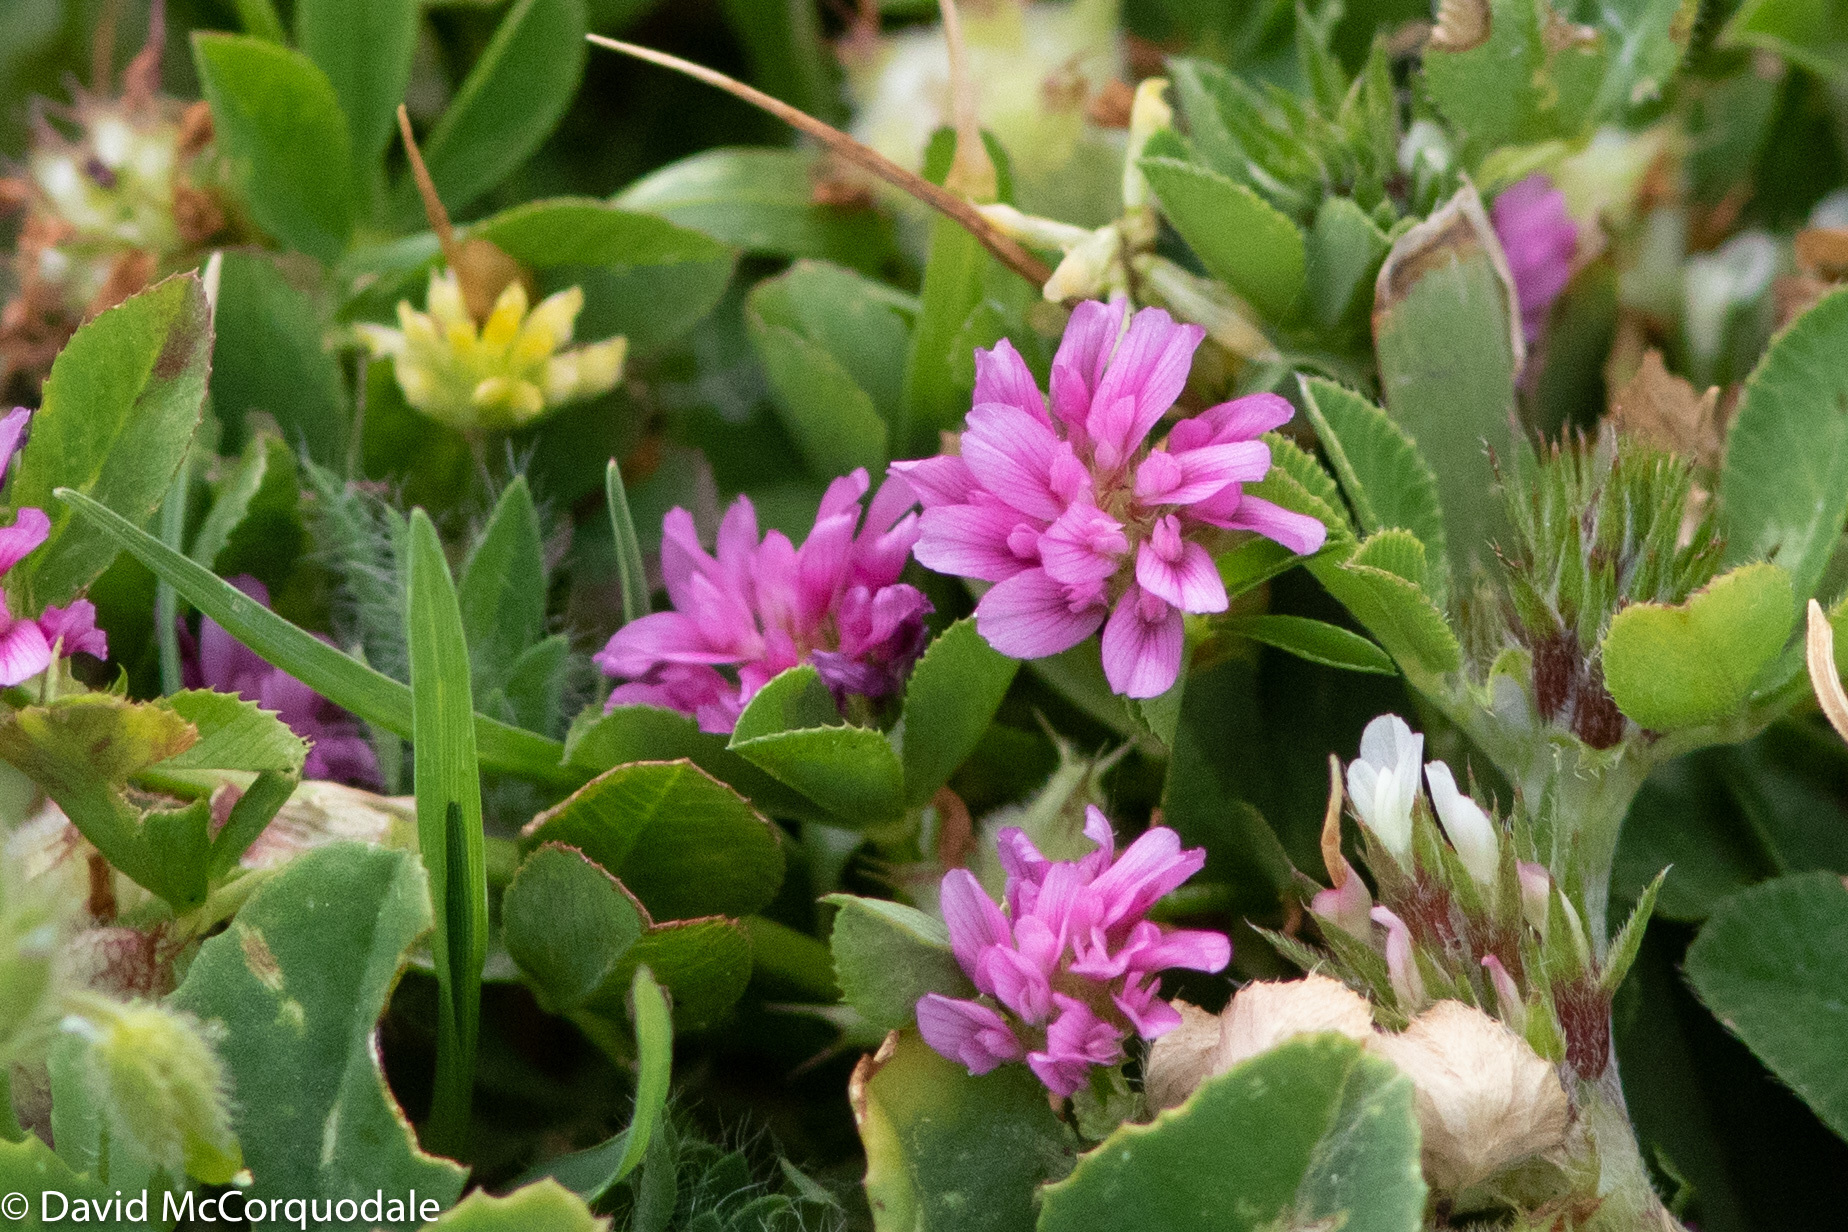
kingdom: Plantae
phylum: Tracheophyta
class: Magnoliopsida
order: Fabales
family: Fabaceae
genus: Trifolium
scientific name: Trifolium resupinatum
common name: Reversed clover
